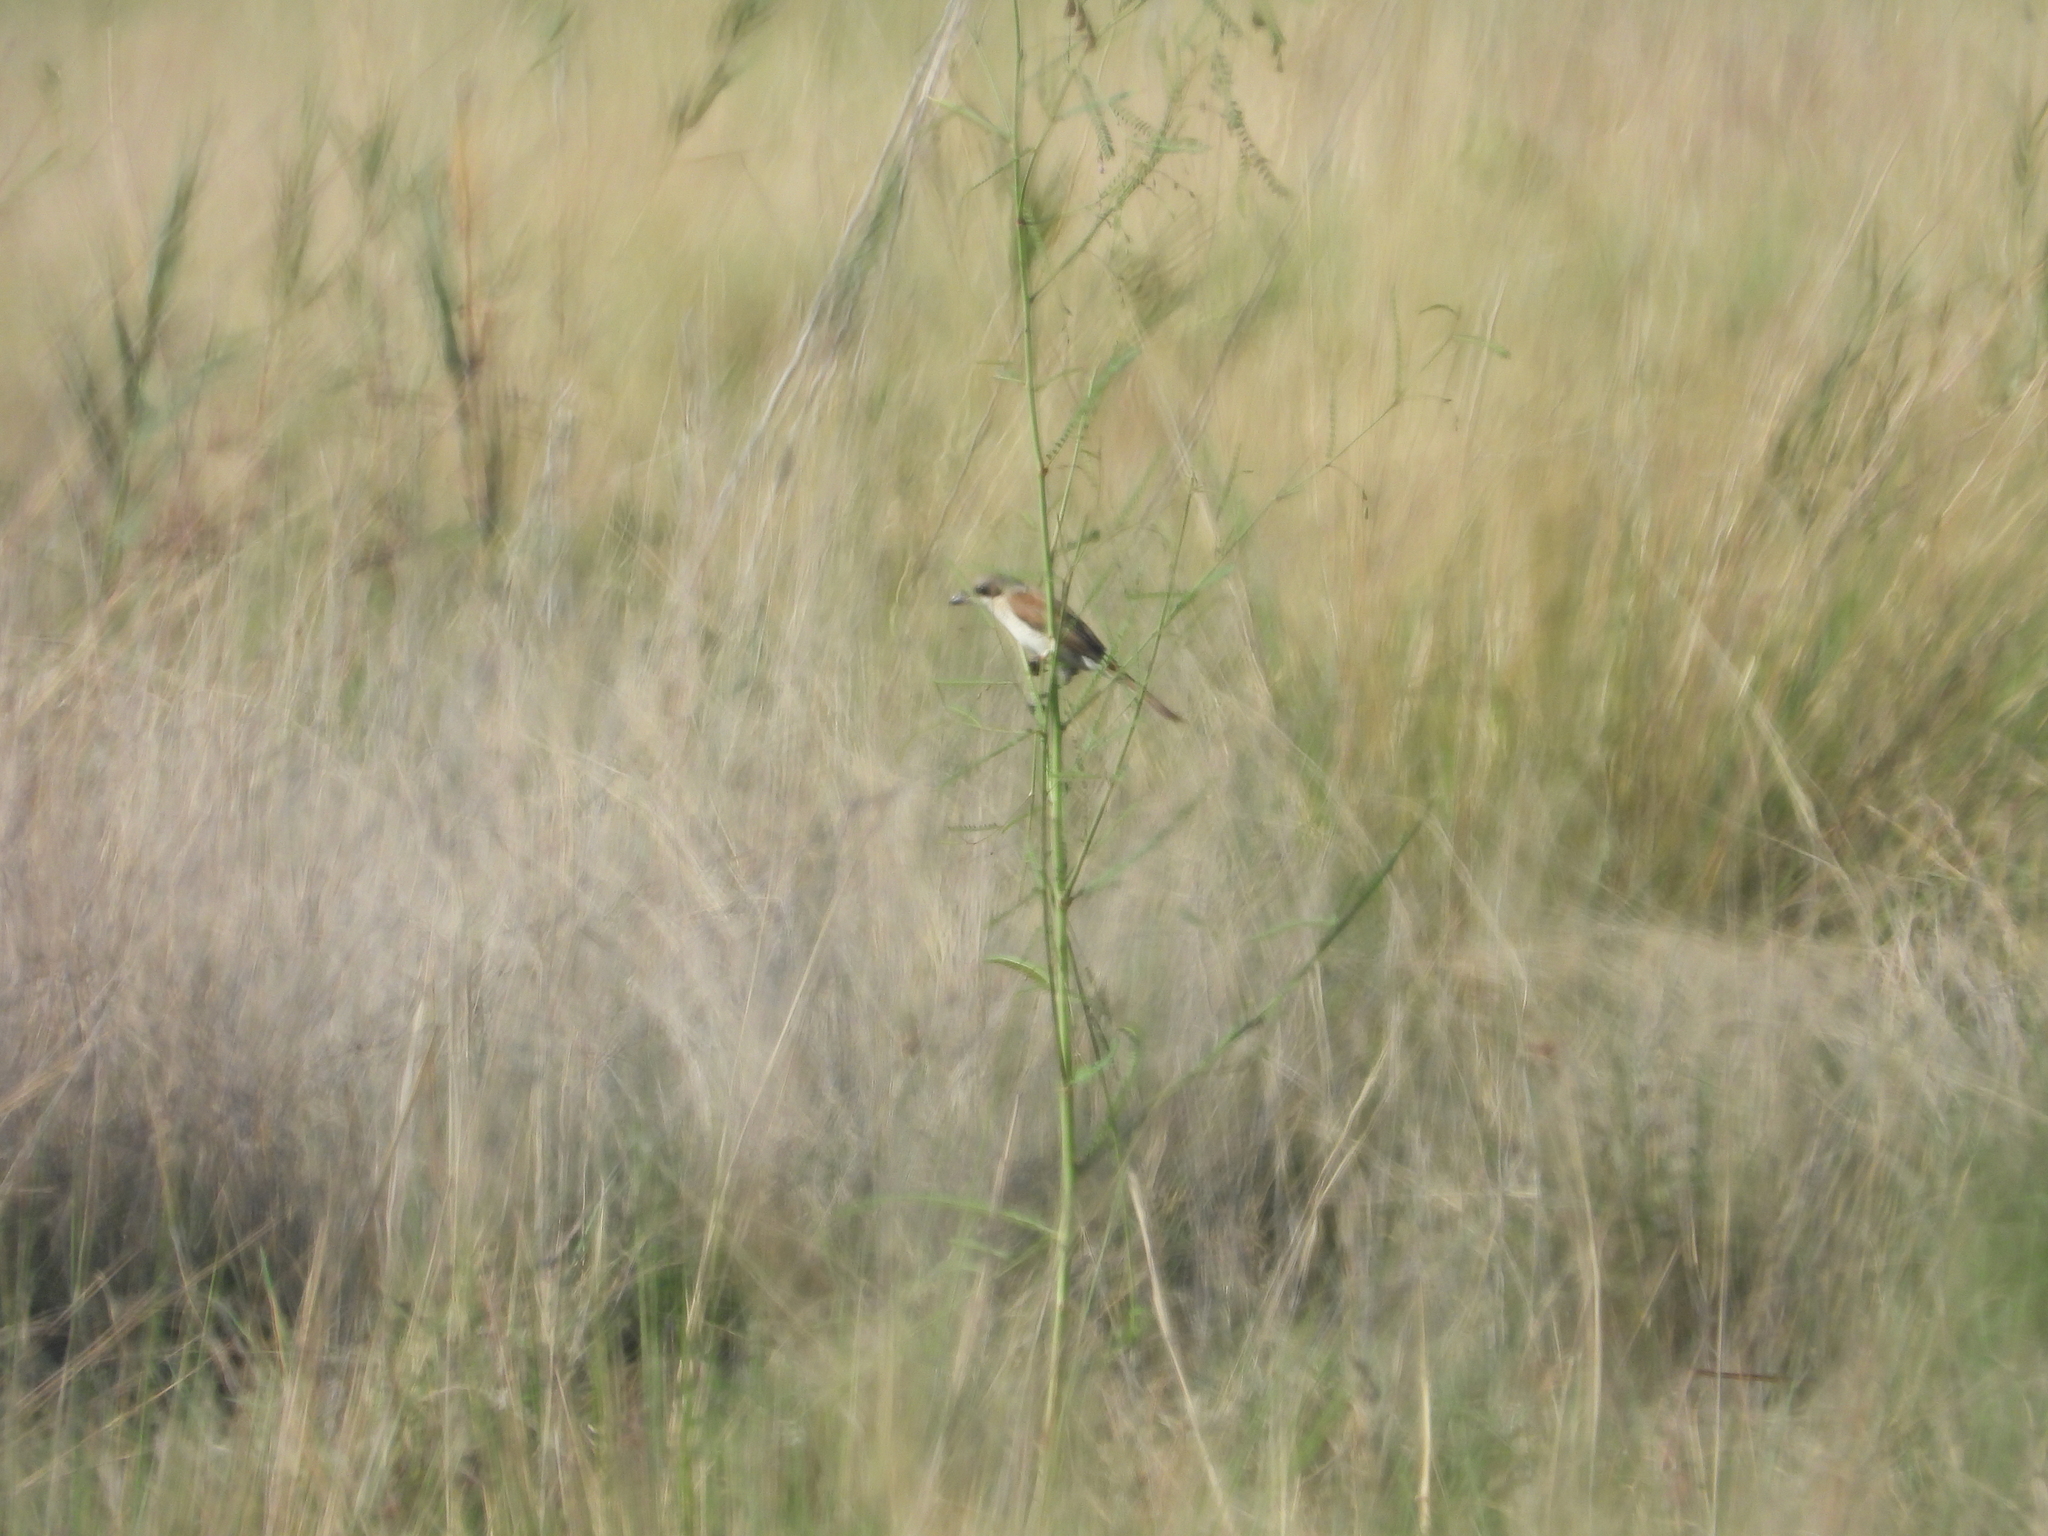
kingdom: Animalia
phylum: Chordata
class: Aves
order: Passeriformes
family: Laniidae
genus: Lanius
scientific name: Lanius collurio
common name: Red-backed shrike
